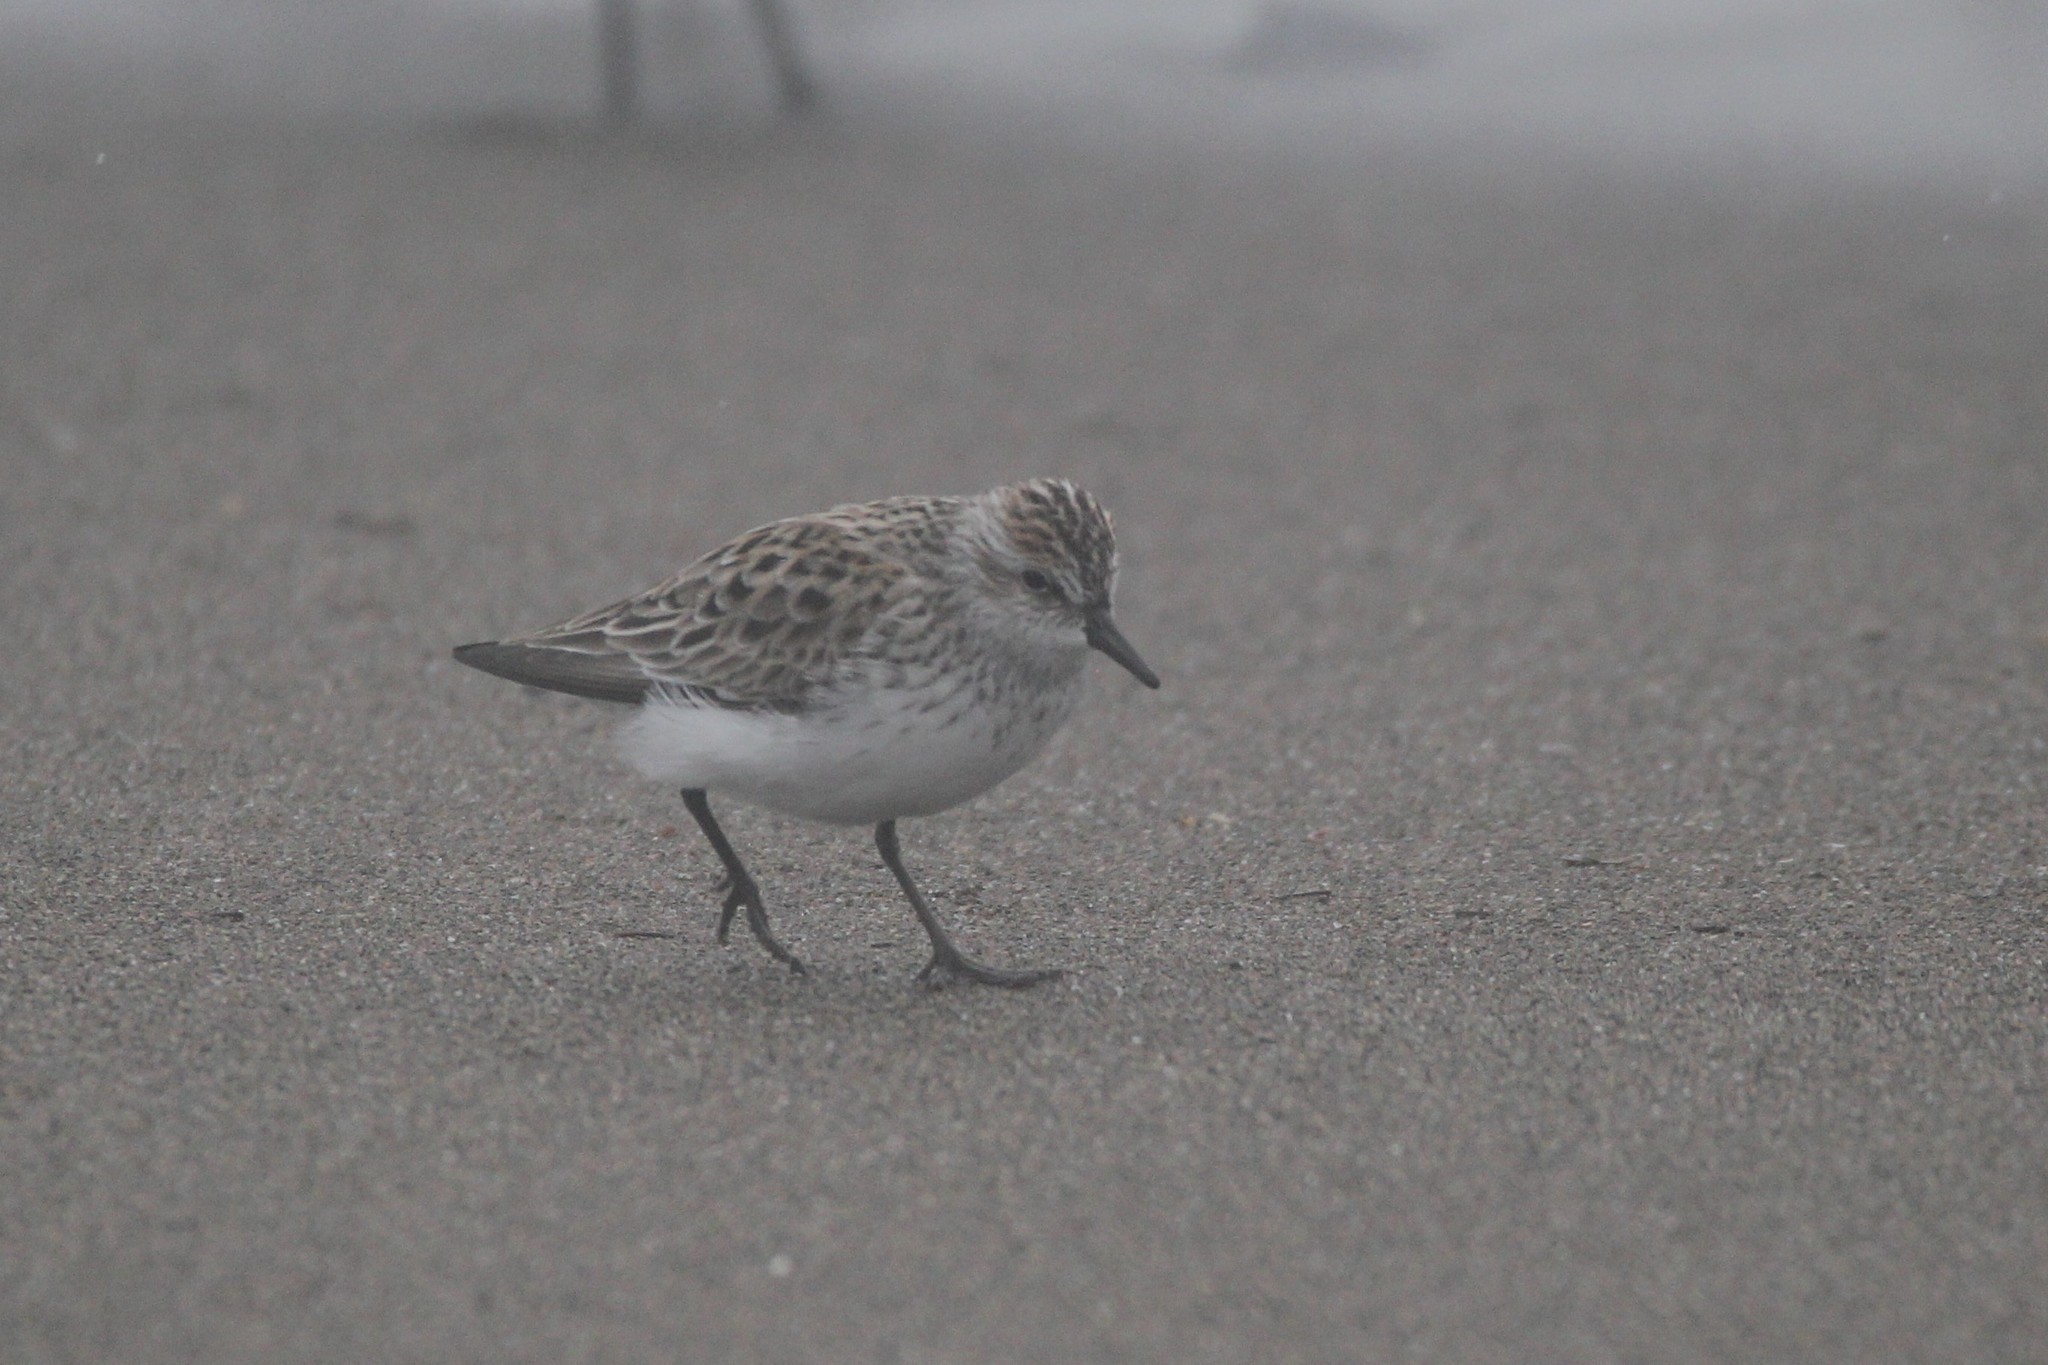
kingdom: Animalia
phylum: Chordata
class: Aves
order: Charadriiformes
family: Scolopacidae
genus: Calidris
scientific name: Calidris pusilla
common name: Semipalmated sandpiper
